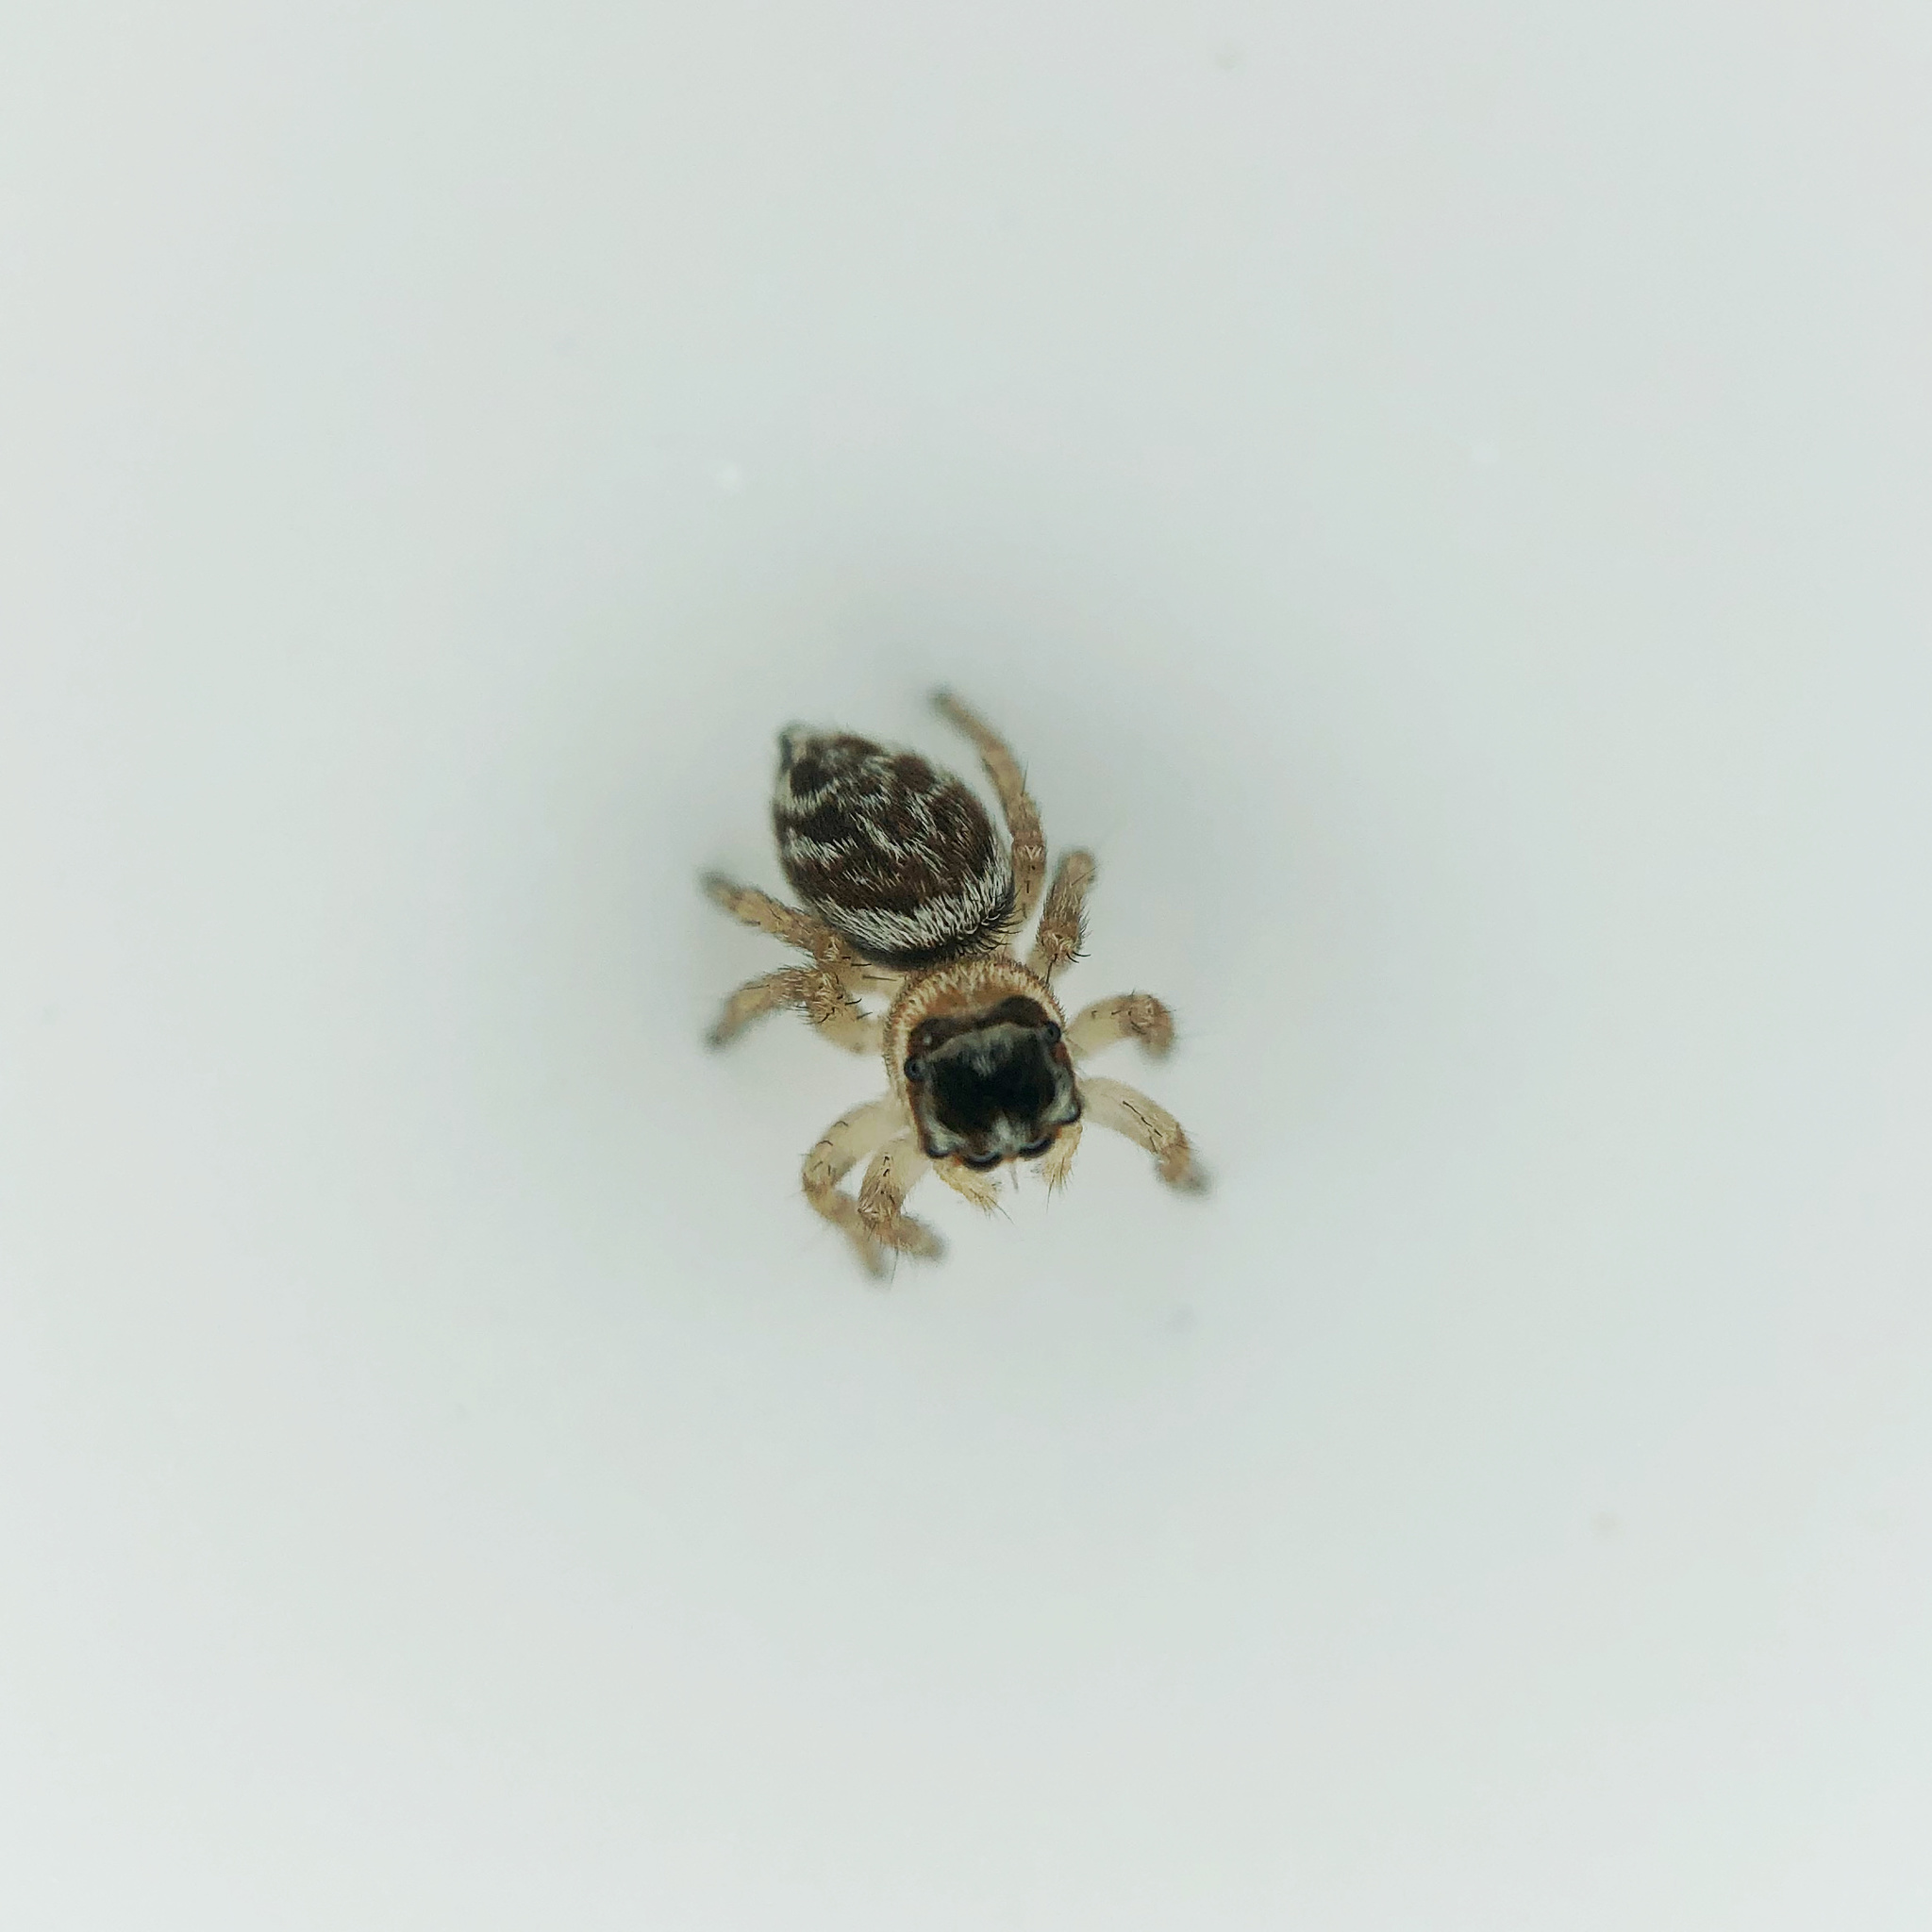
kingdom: Animalia
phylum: Arthropoda
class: Arachnida
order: Araneae
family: Salticidae
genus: Maratus
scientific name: Maratus griseus
